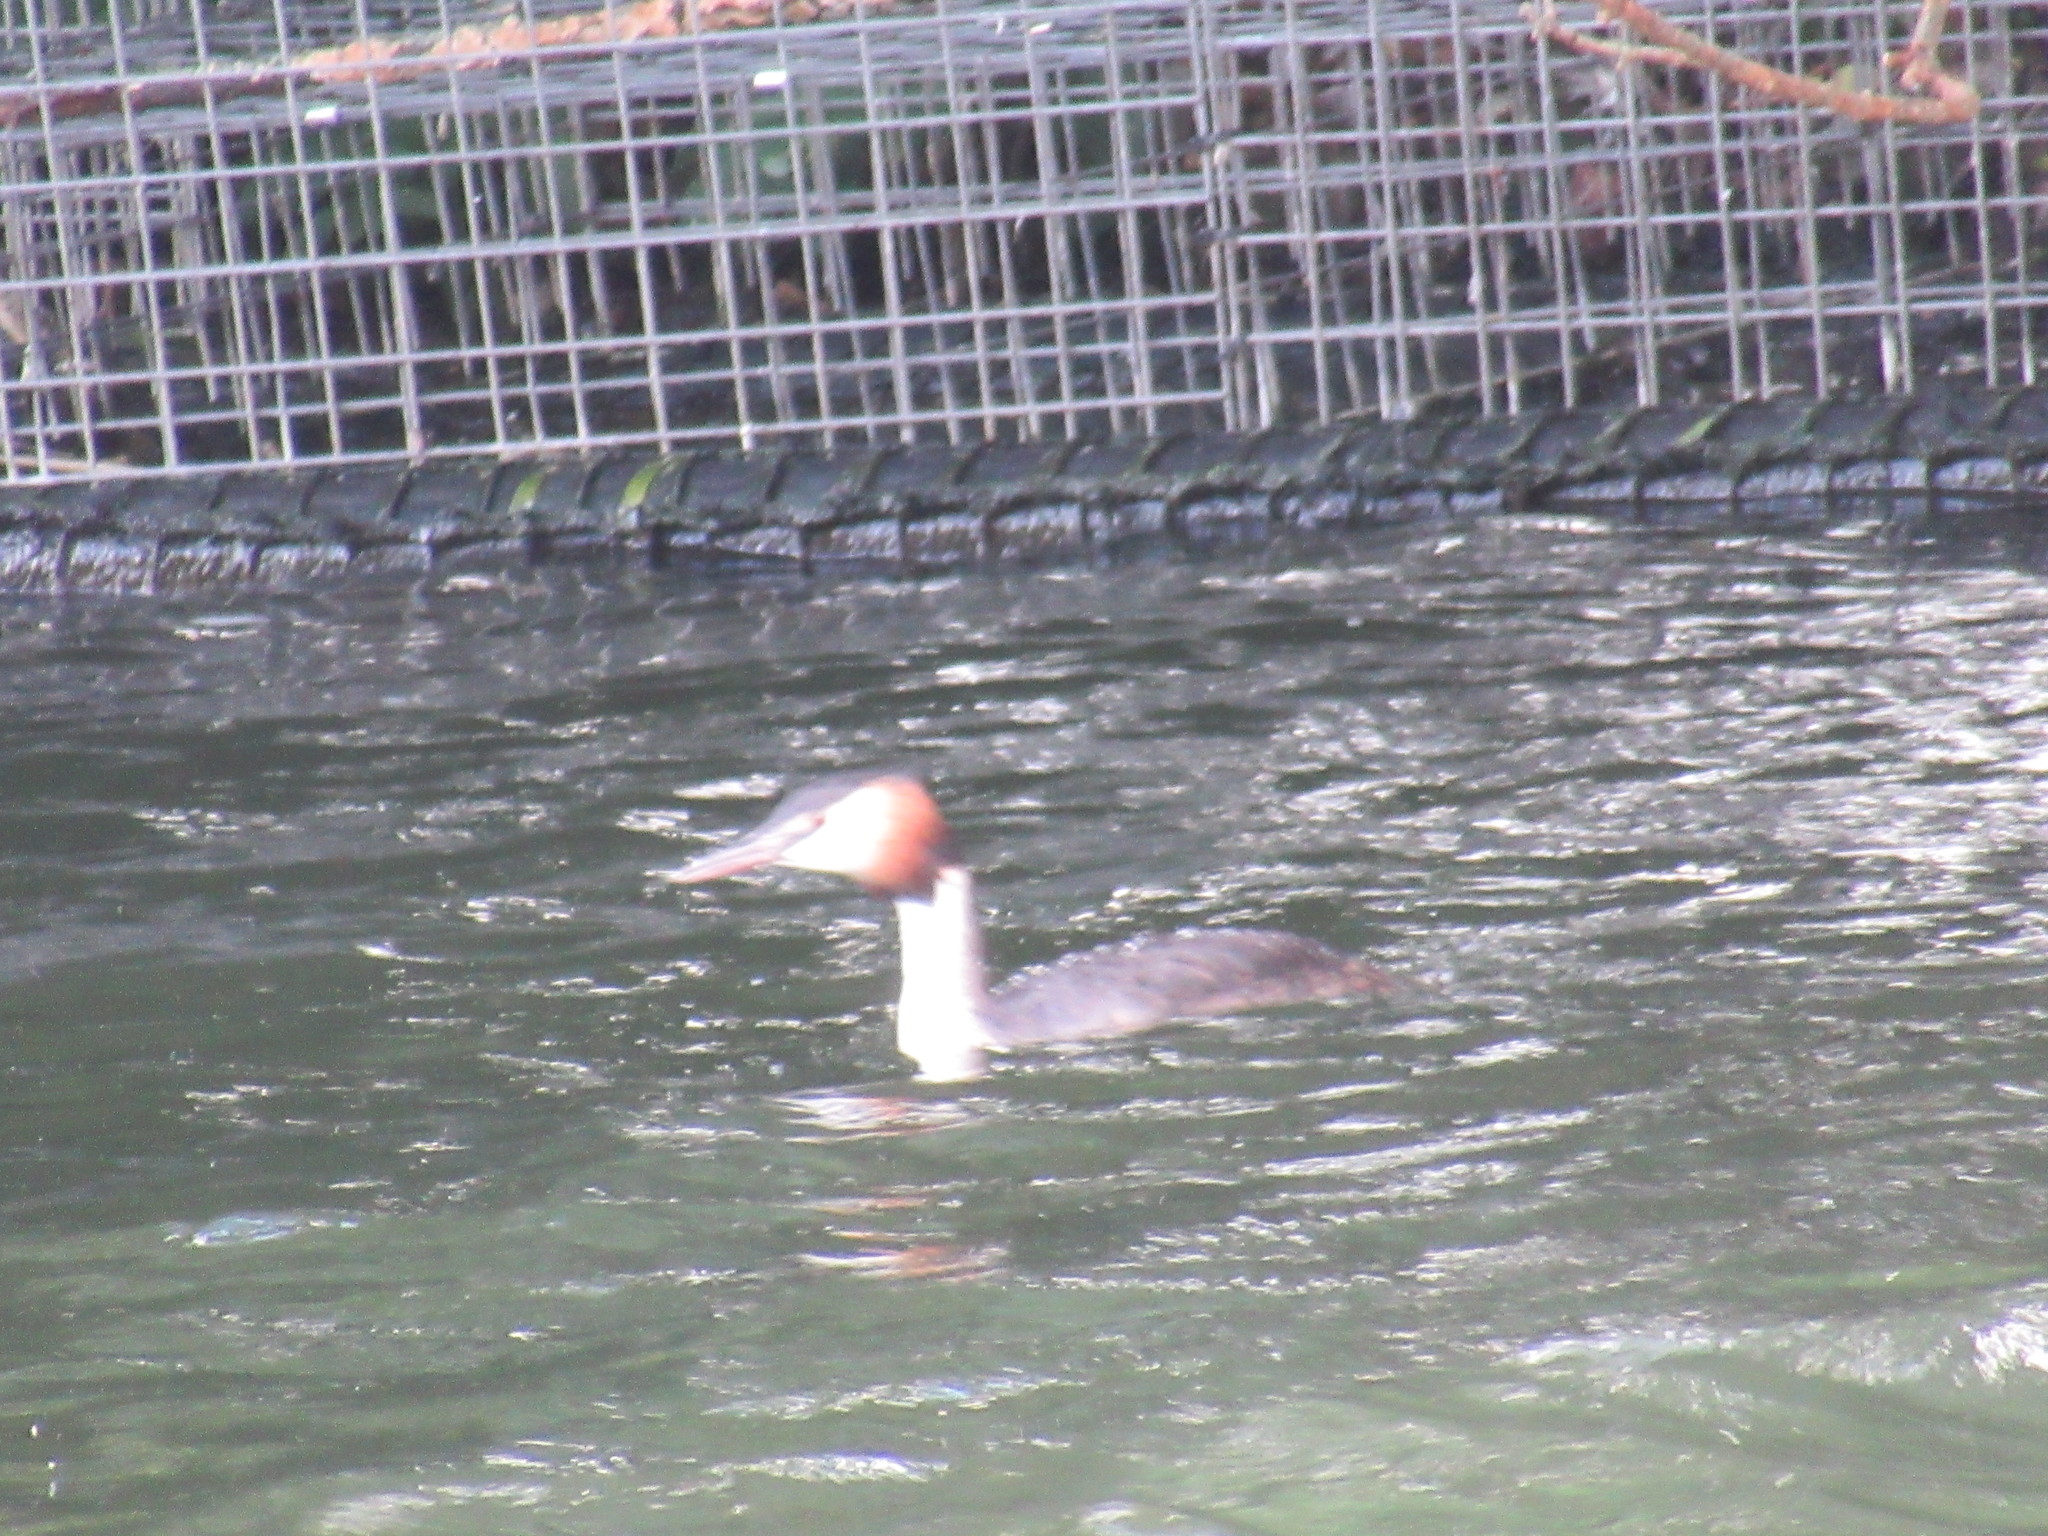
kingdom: Animalia
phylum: Chordata
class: Aves
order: Podicipediformes
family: Podicipedidae
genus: Podiceps
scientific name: Podiceps cristatus
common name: Great crested grebe
